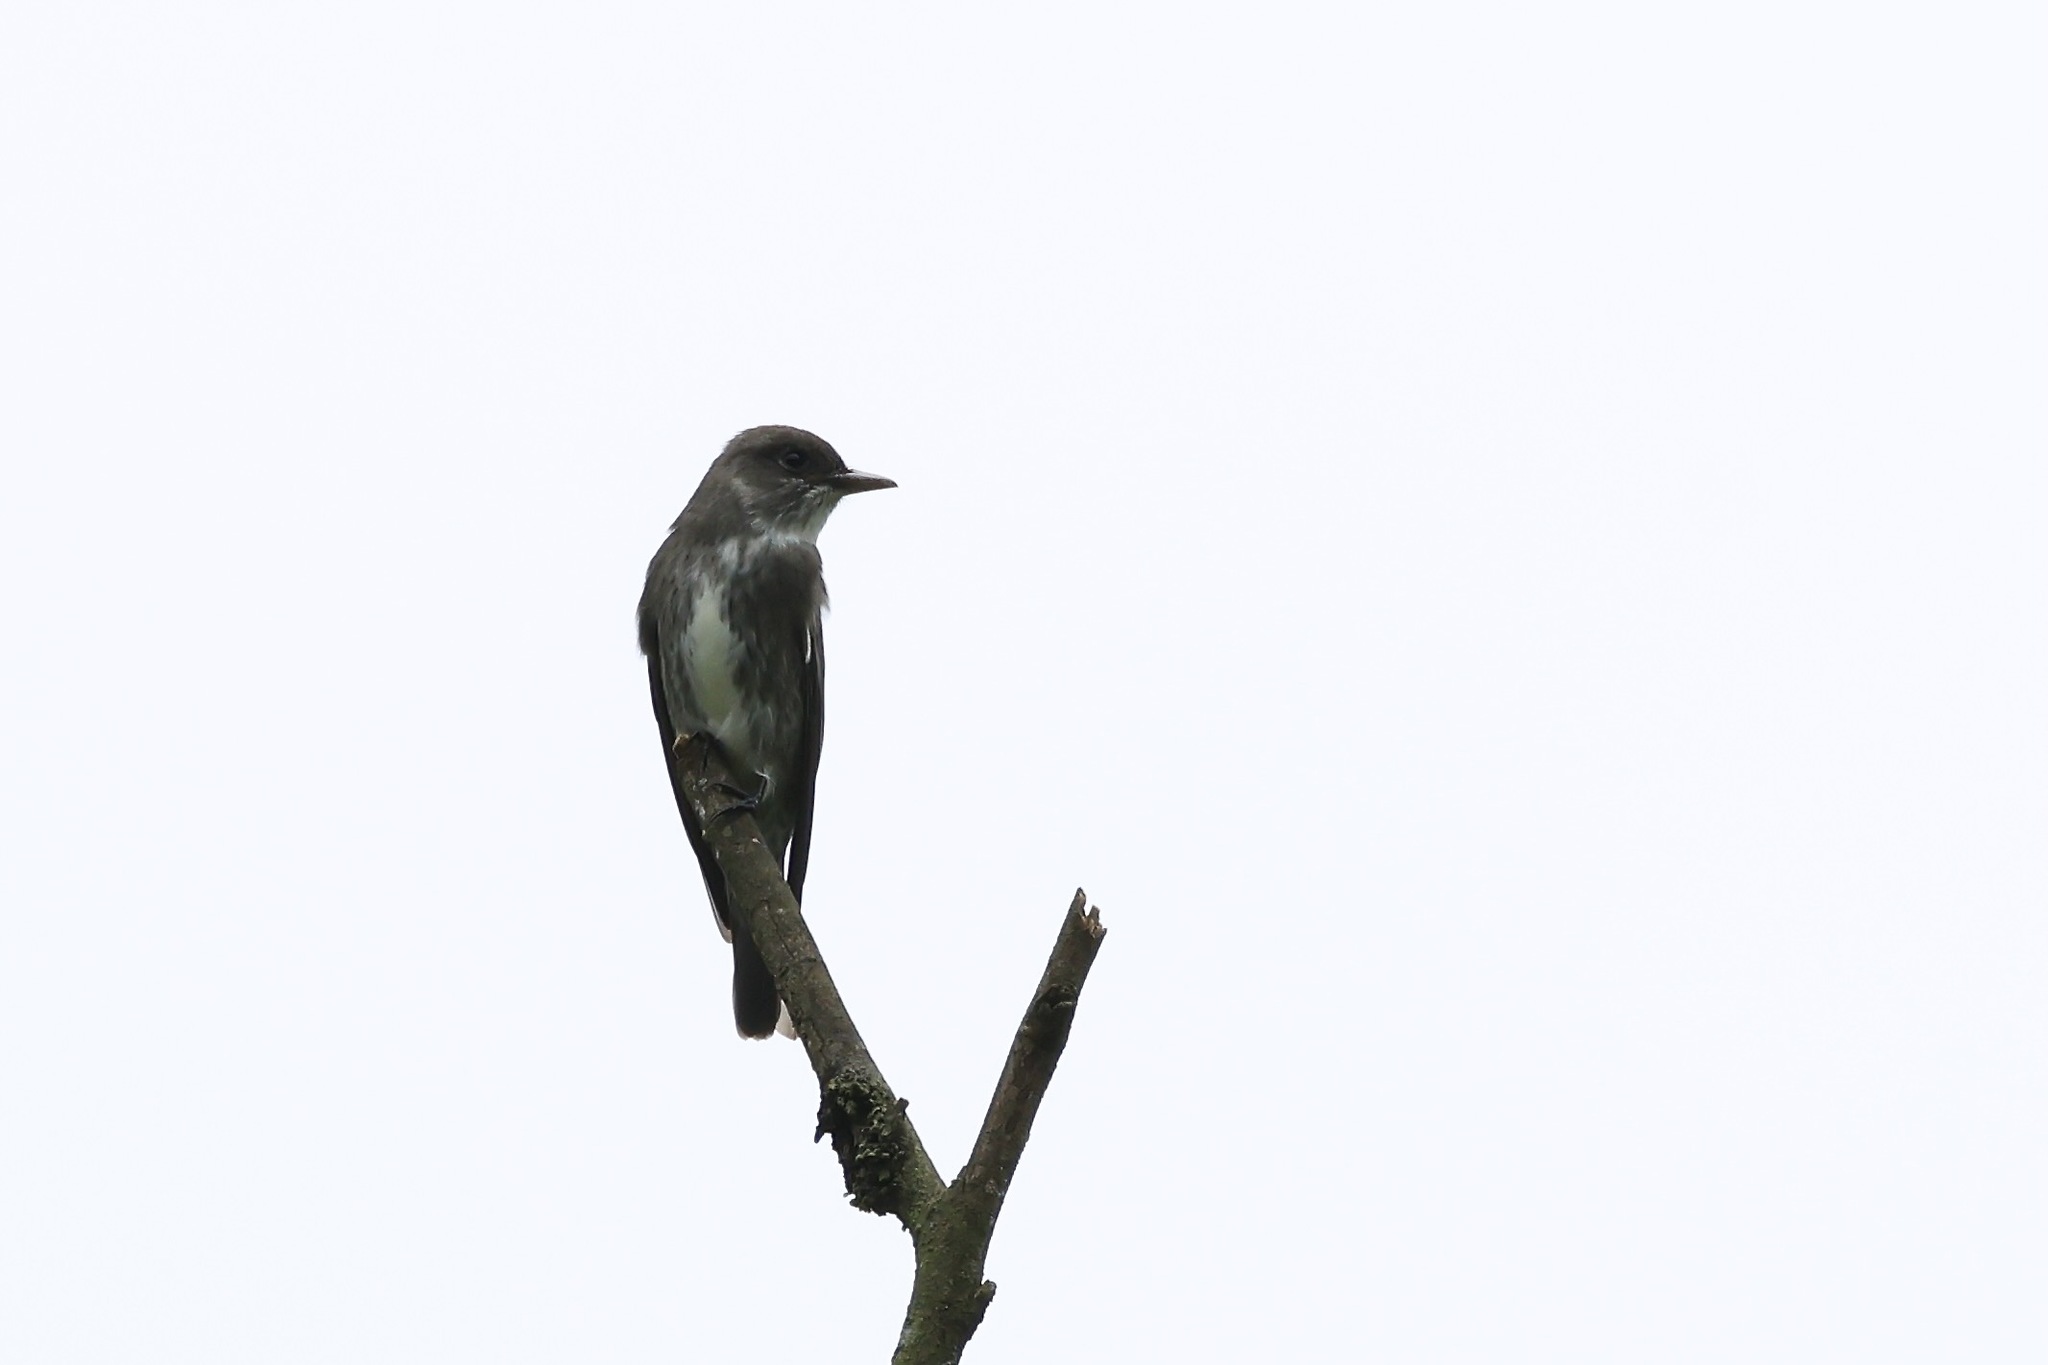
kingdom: Animalia
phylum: Chordata
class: Aves
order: Passeriformes
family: Tyrannidae
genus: Contopus
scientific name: Contopus cooperi
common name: Olive-sided flycatcher
